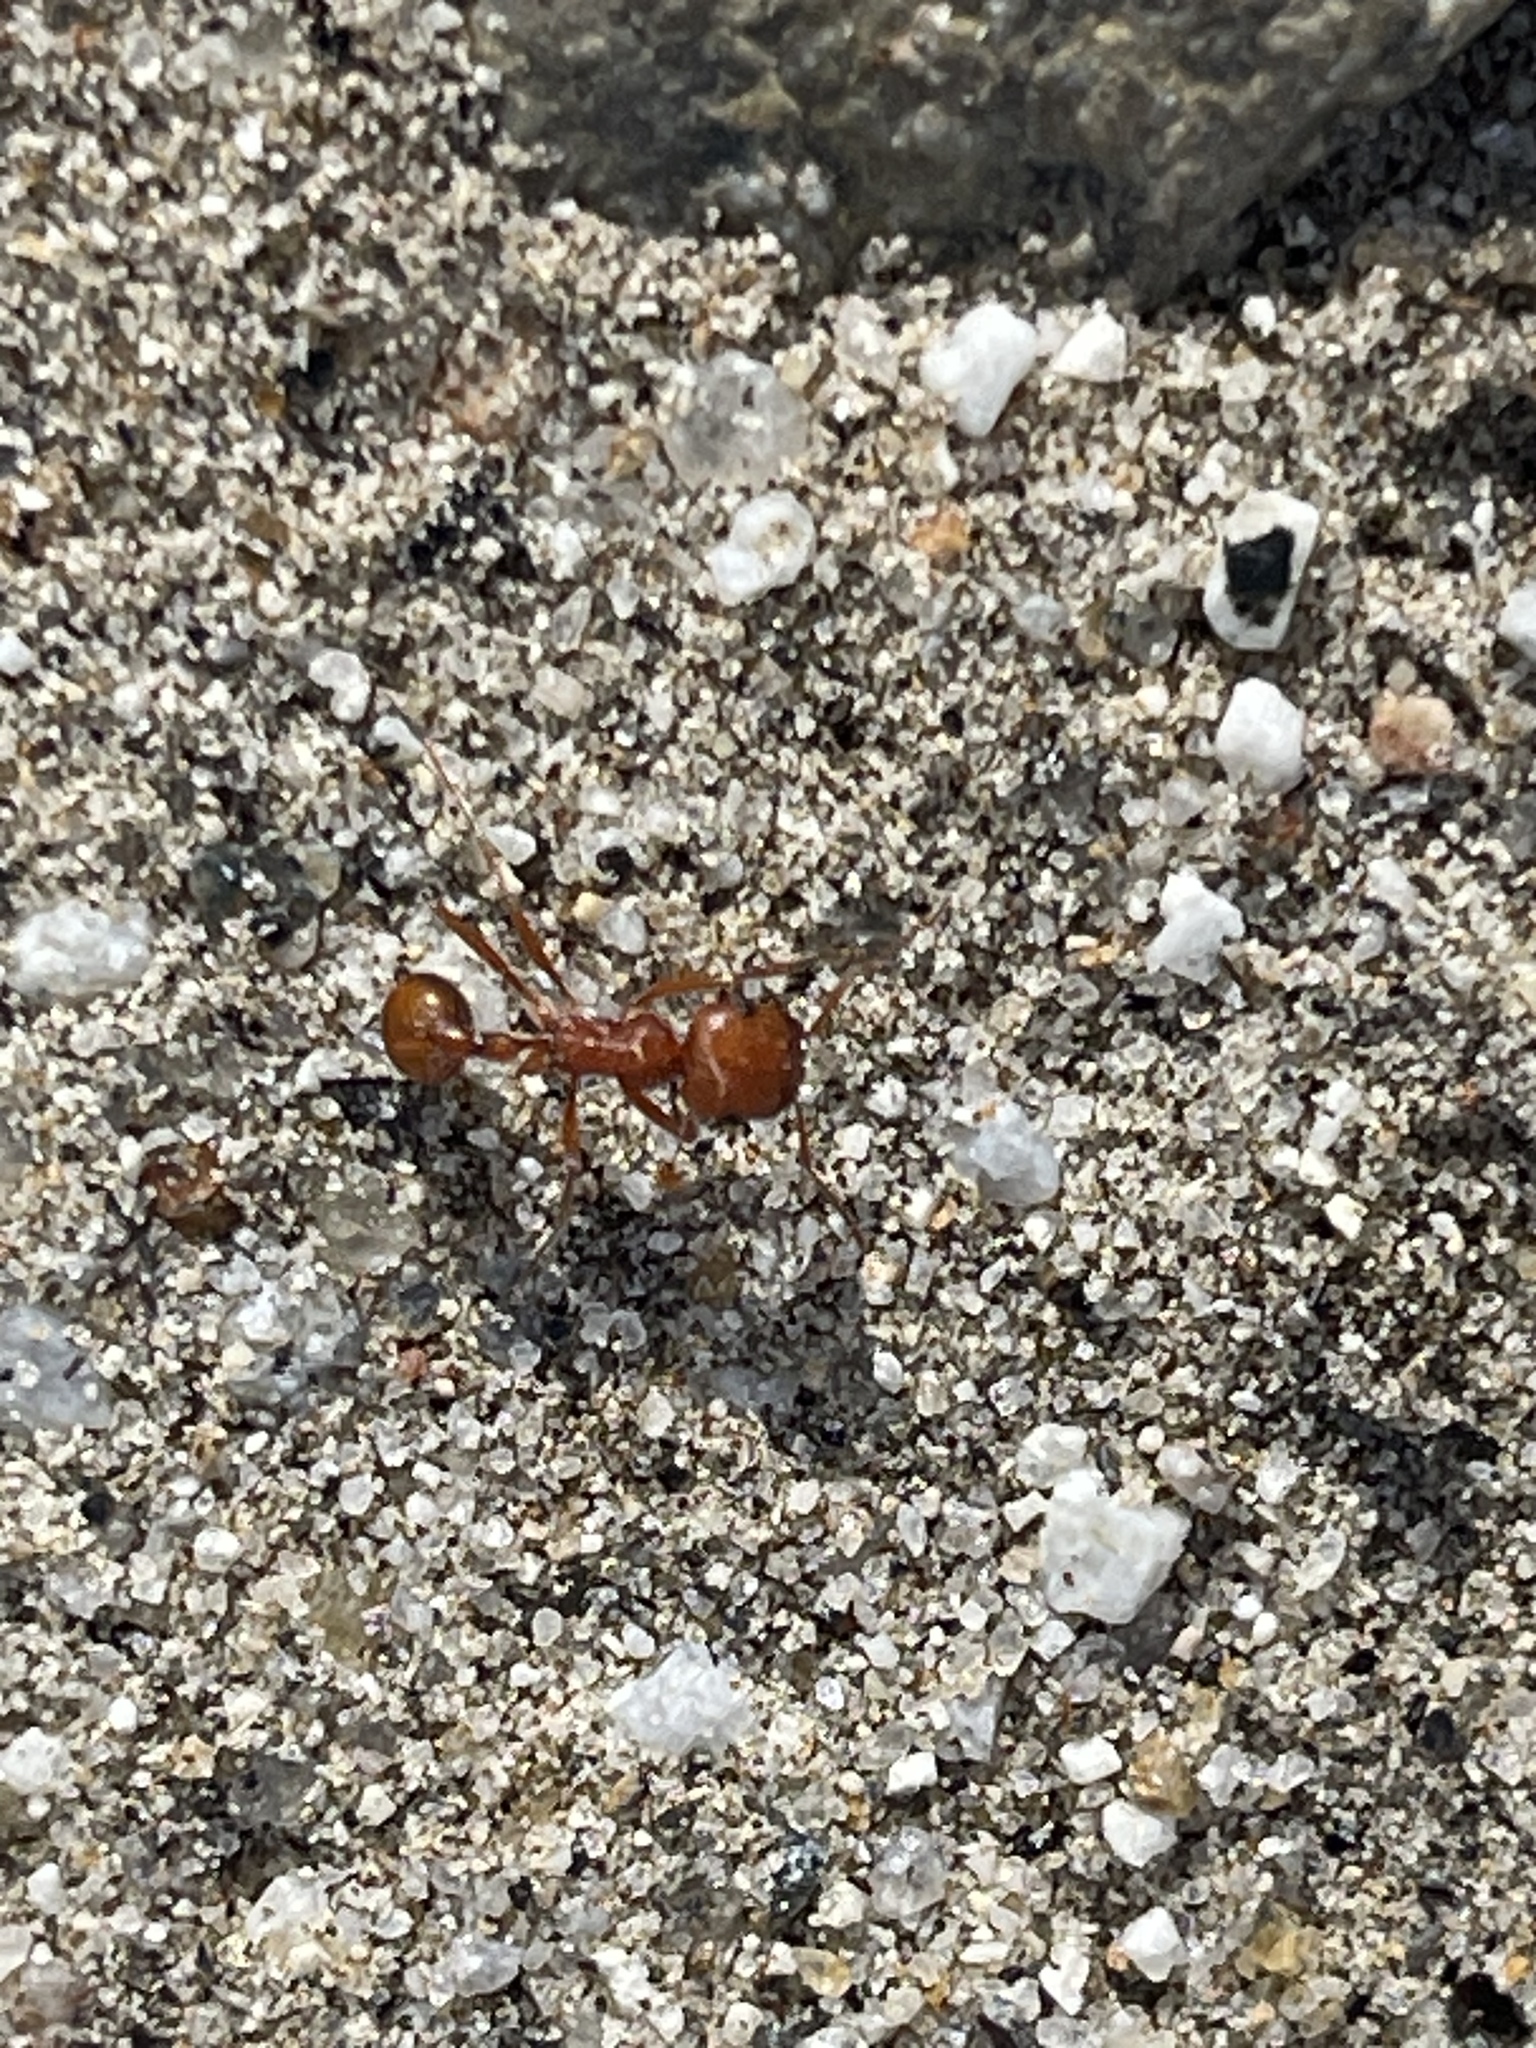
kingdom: Animalia
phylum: Arthropoda
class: Insecta
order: Hymenoptera
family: Formicidae
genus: Pogonomyrmex
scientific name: Pogonomyrmex californicus
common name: California harvester ant
